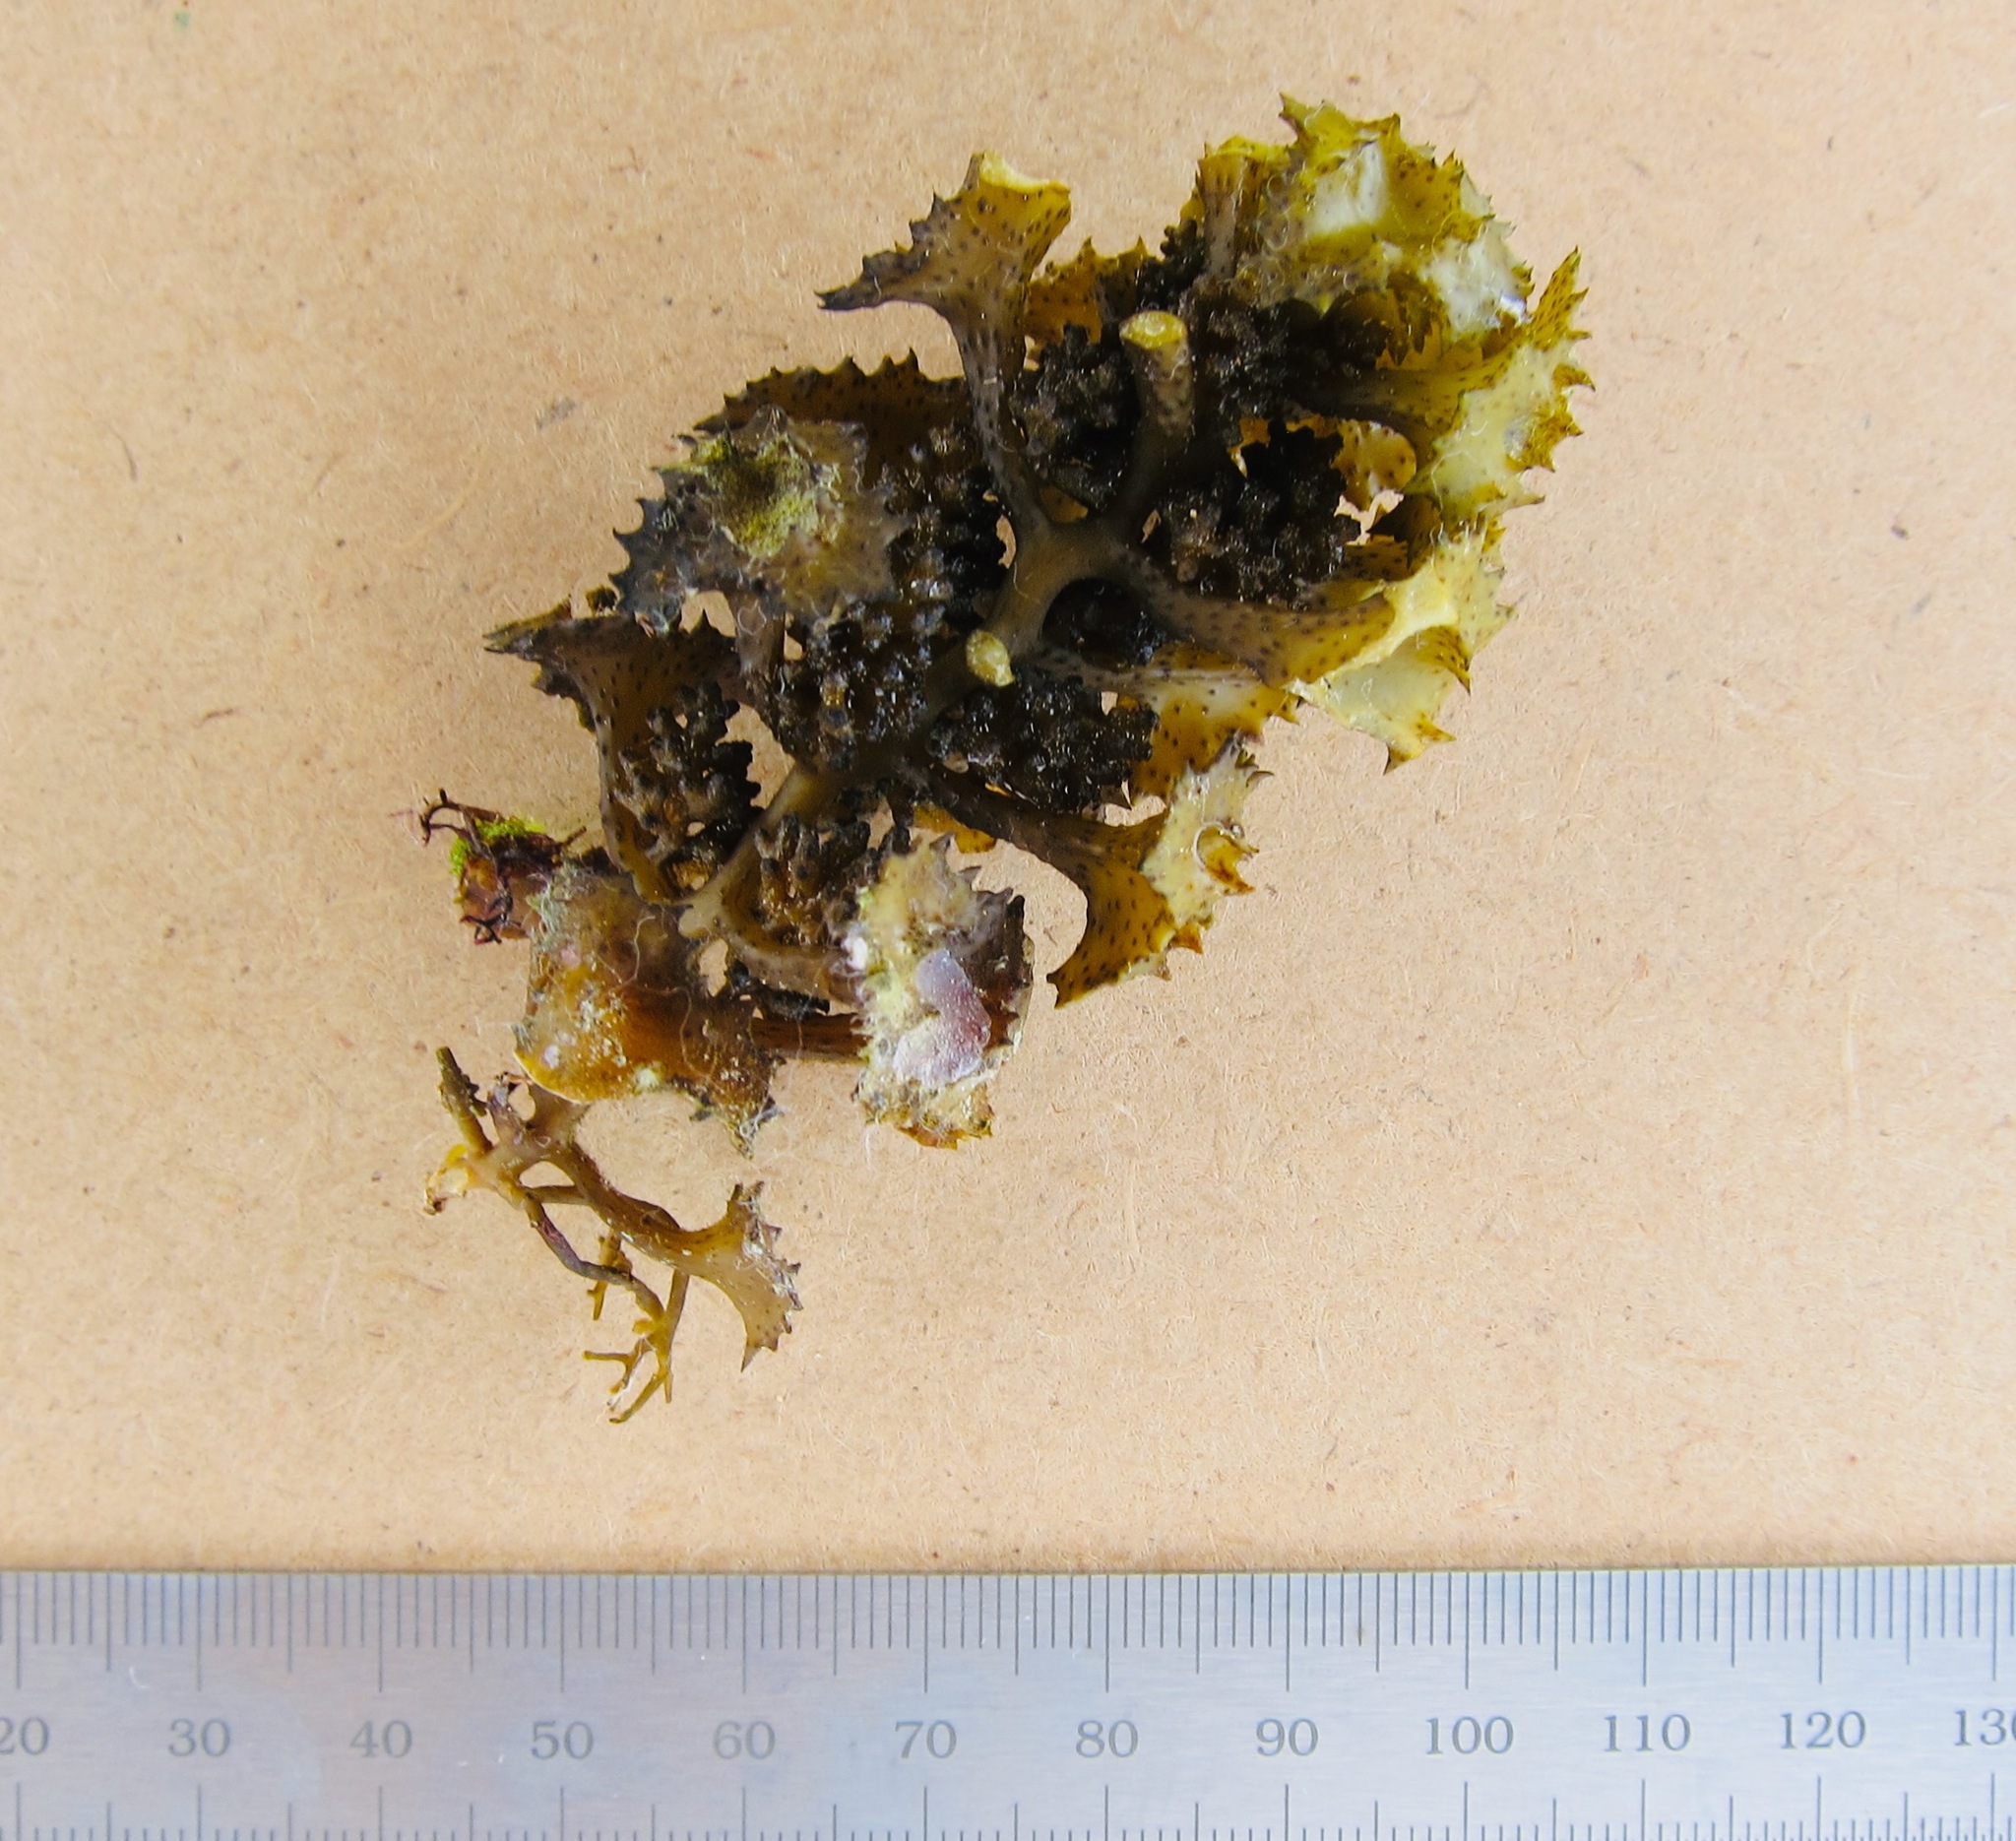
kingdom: Chromista
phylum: Ochrophyta
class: Phaeophyceae
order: Fucales
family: Sargassaceae
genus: Turbinaria
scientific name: Turbinaria ornata
